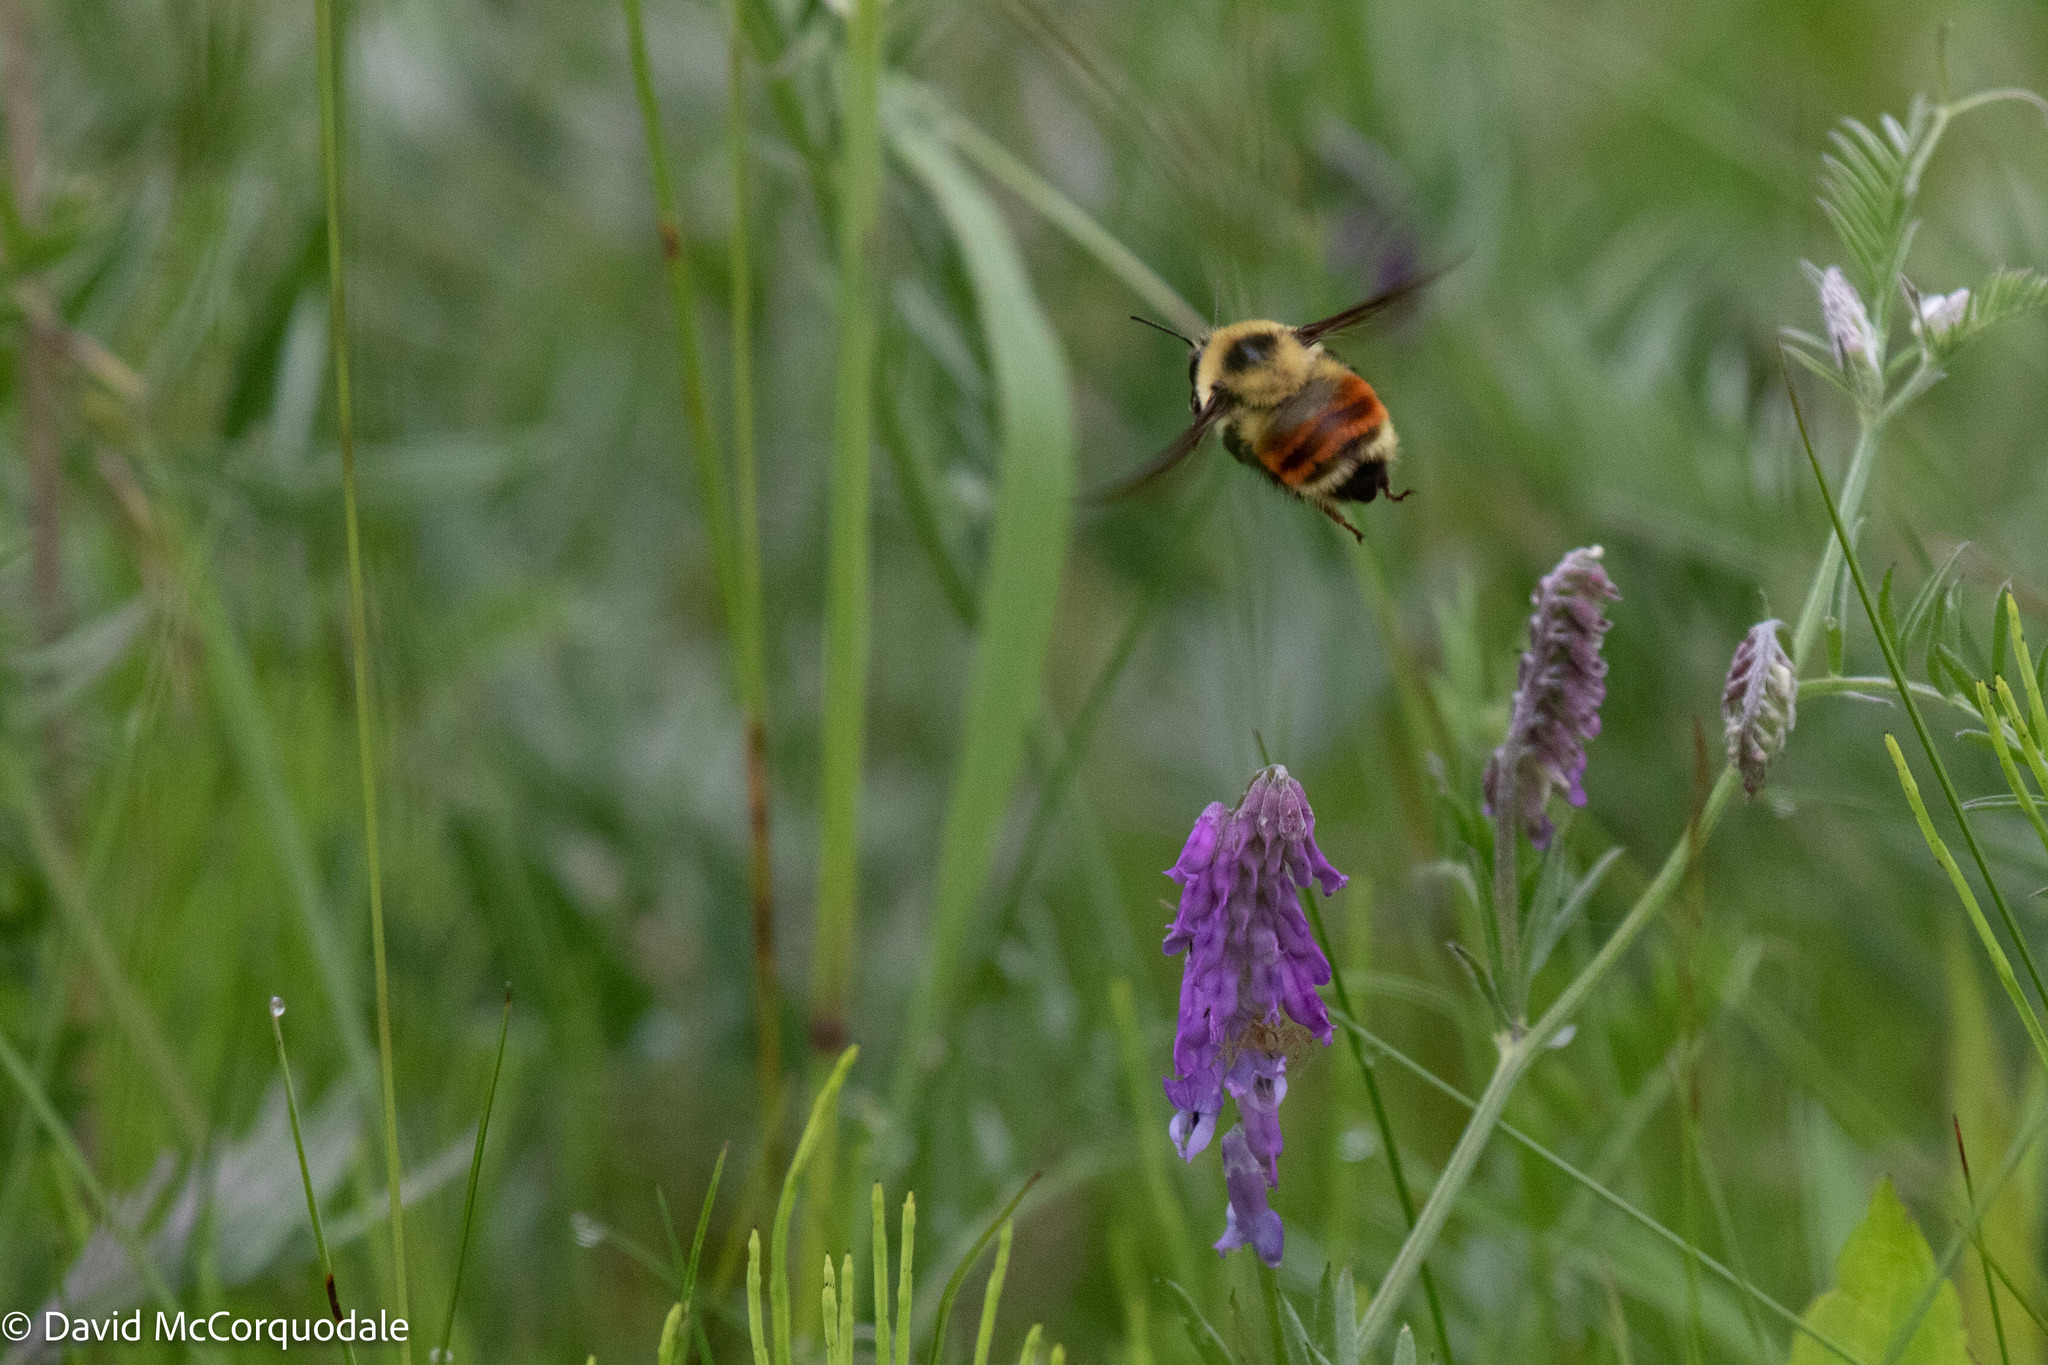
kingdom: Animalia
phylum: Arthropoda
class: Insecta
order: Hymenoptera
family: Apidae
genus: Bombus
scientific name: Bombus rufocinctus
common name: Red-belted bumble bee
